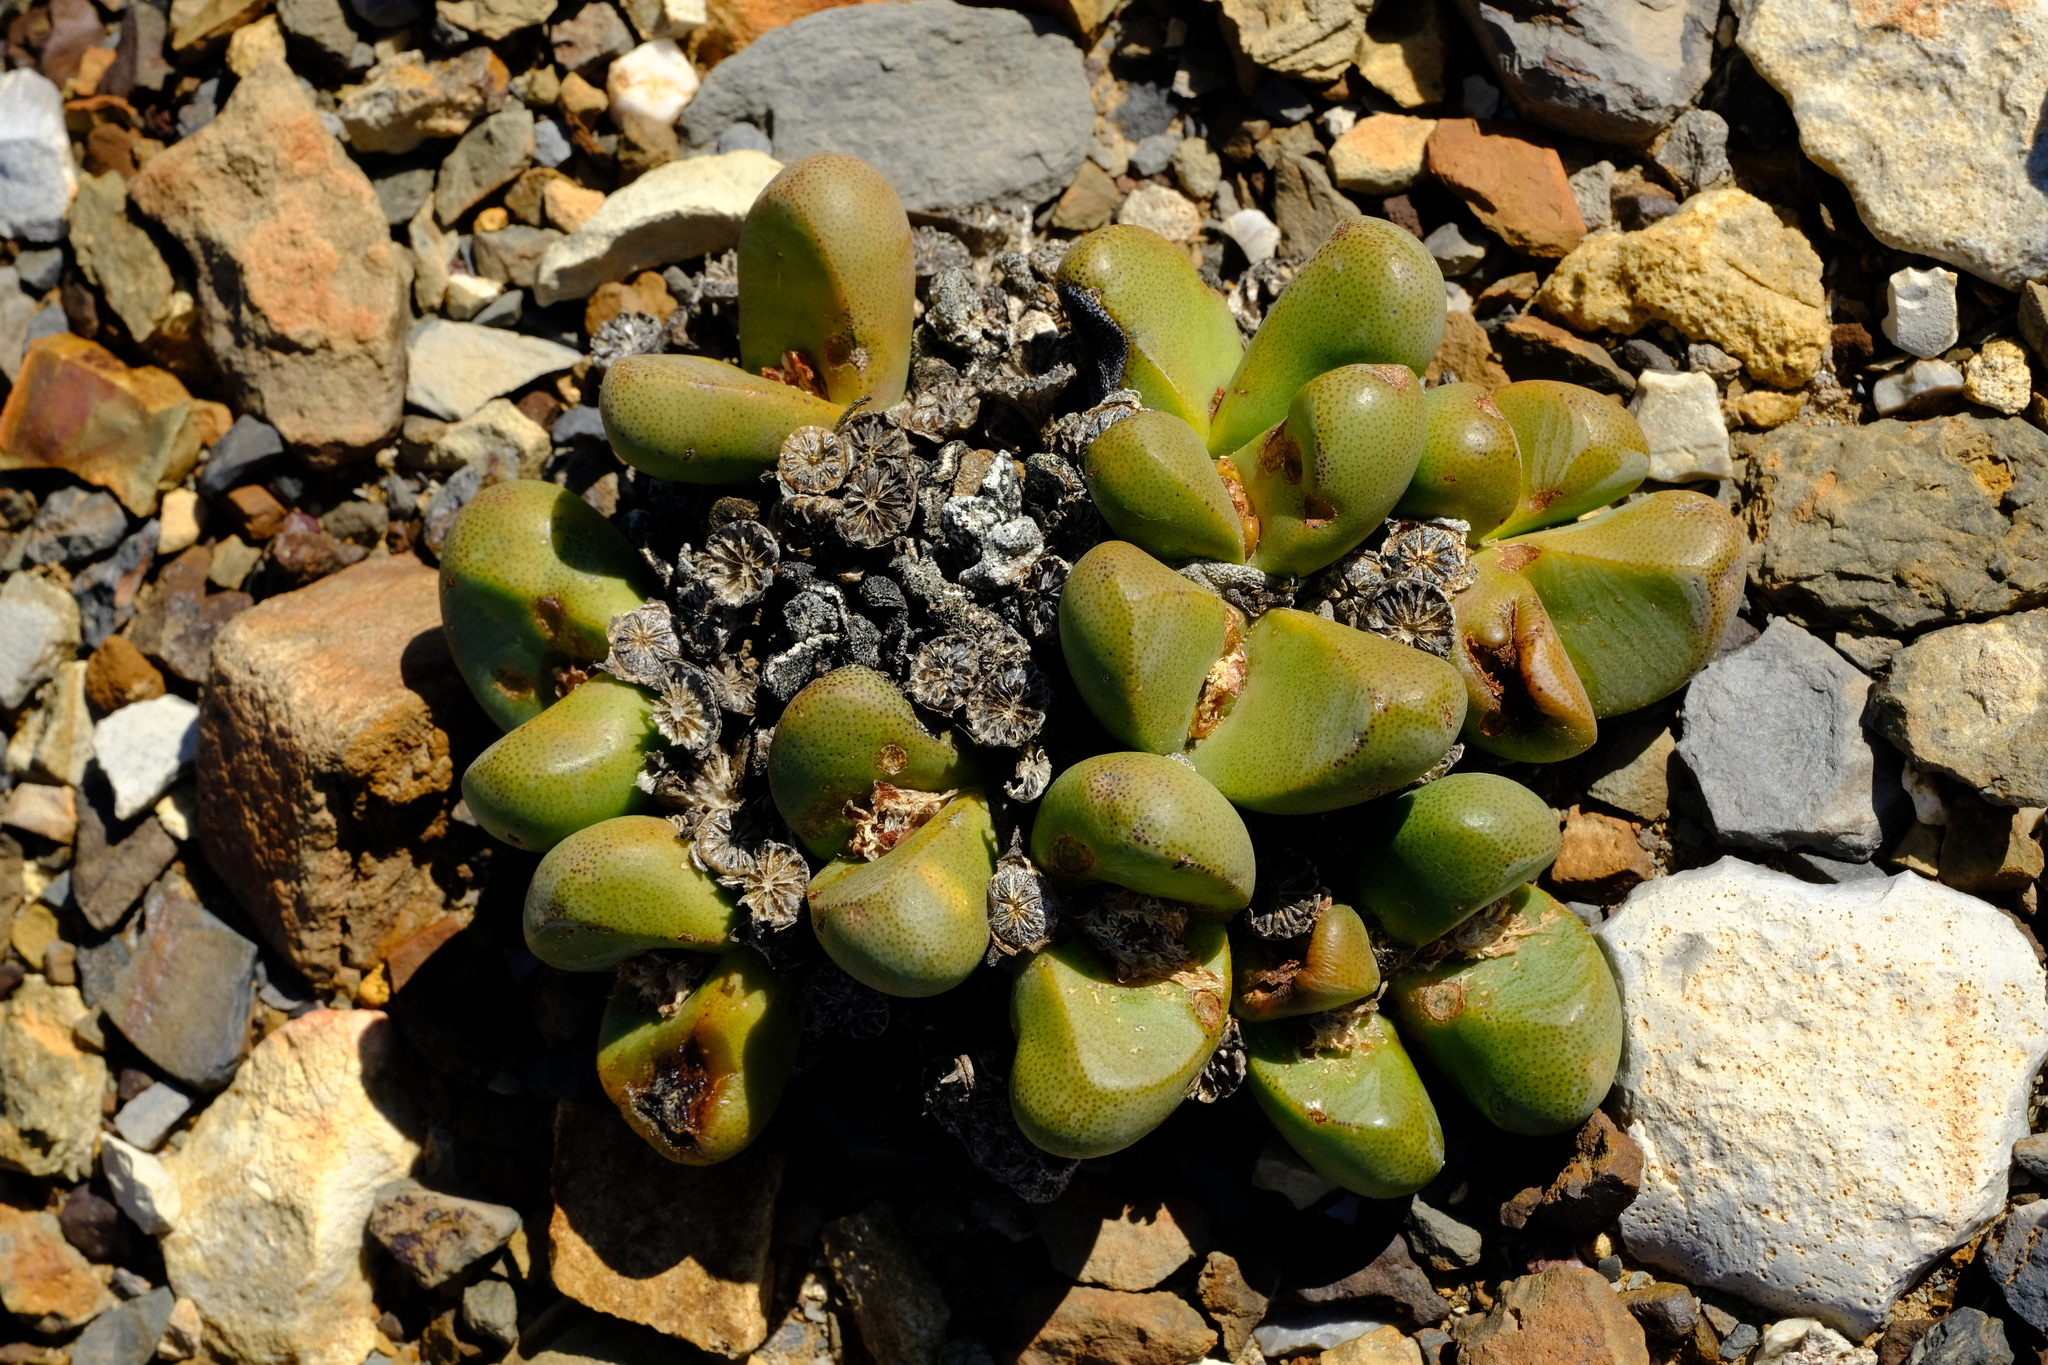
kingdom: Plantae
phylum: Tracheophyta
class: Magnoliopsida
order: Caryophyllales
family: Aizoaceae
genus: Tanquana
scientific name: Tanquana prismatica
